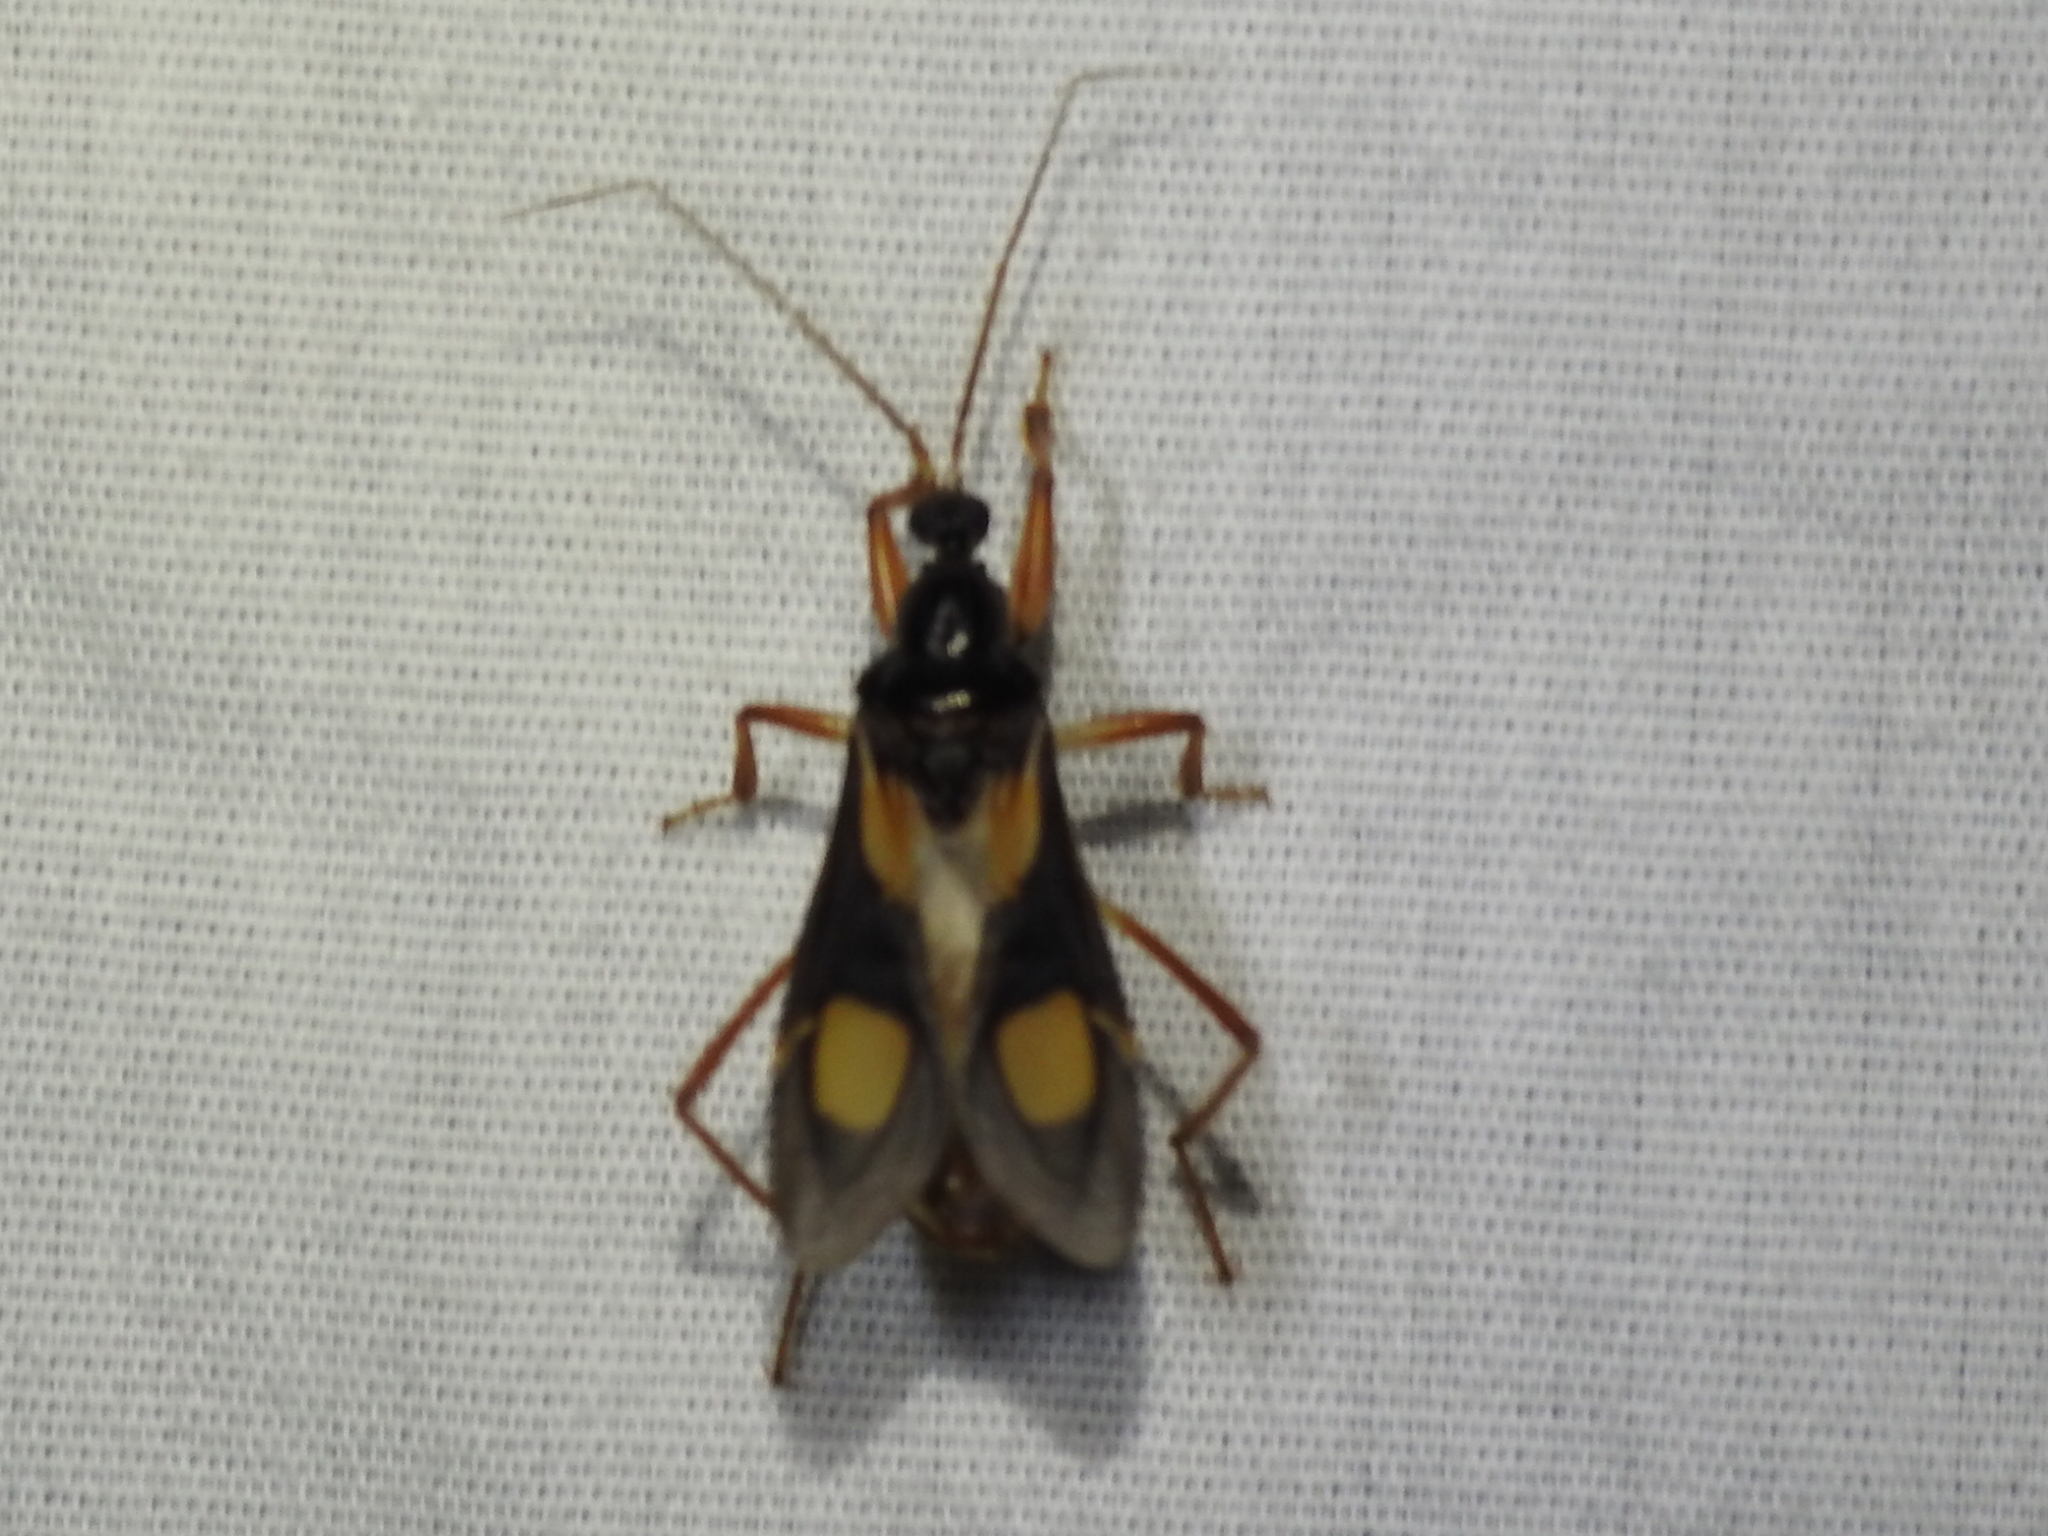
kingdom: Animalia
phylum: Arthropoda
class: Insecta
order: Hemiptera
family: Reduviidae
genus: Rasahus
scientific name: Rasahus hamatus
